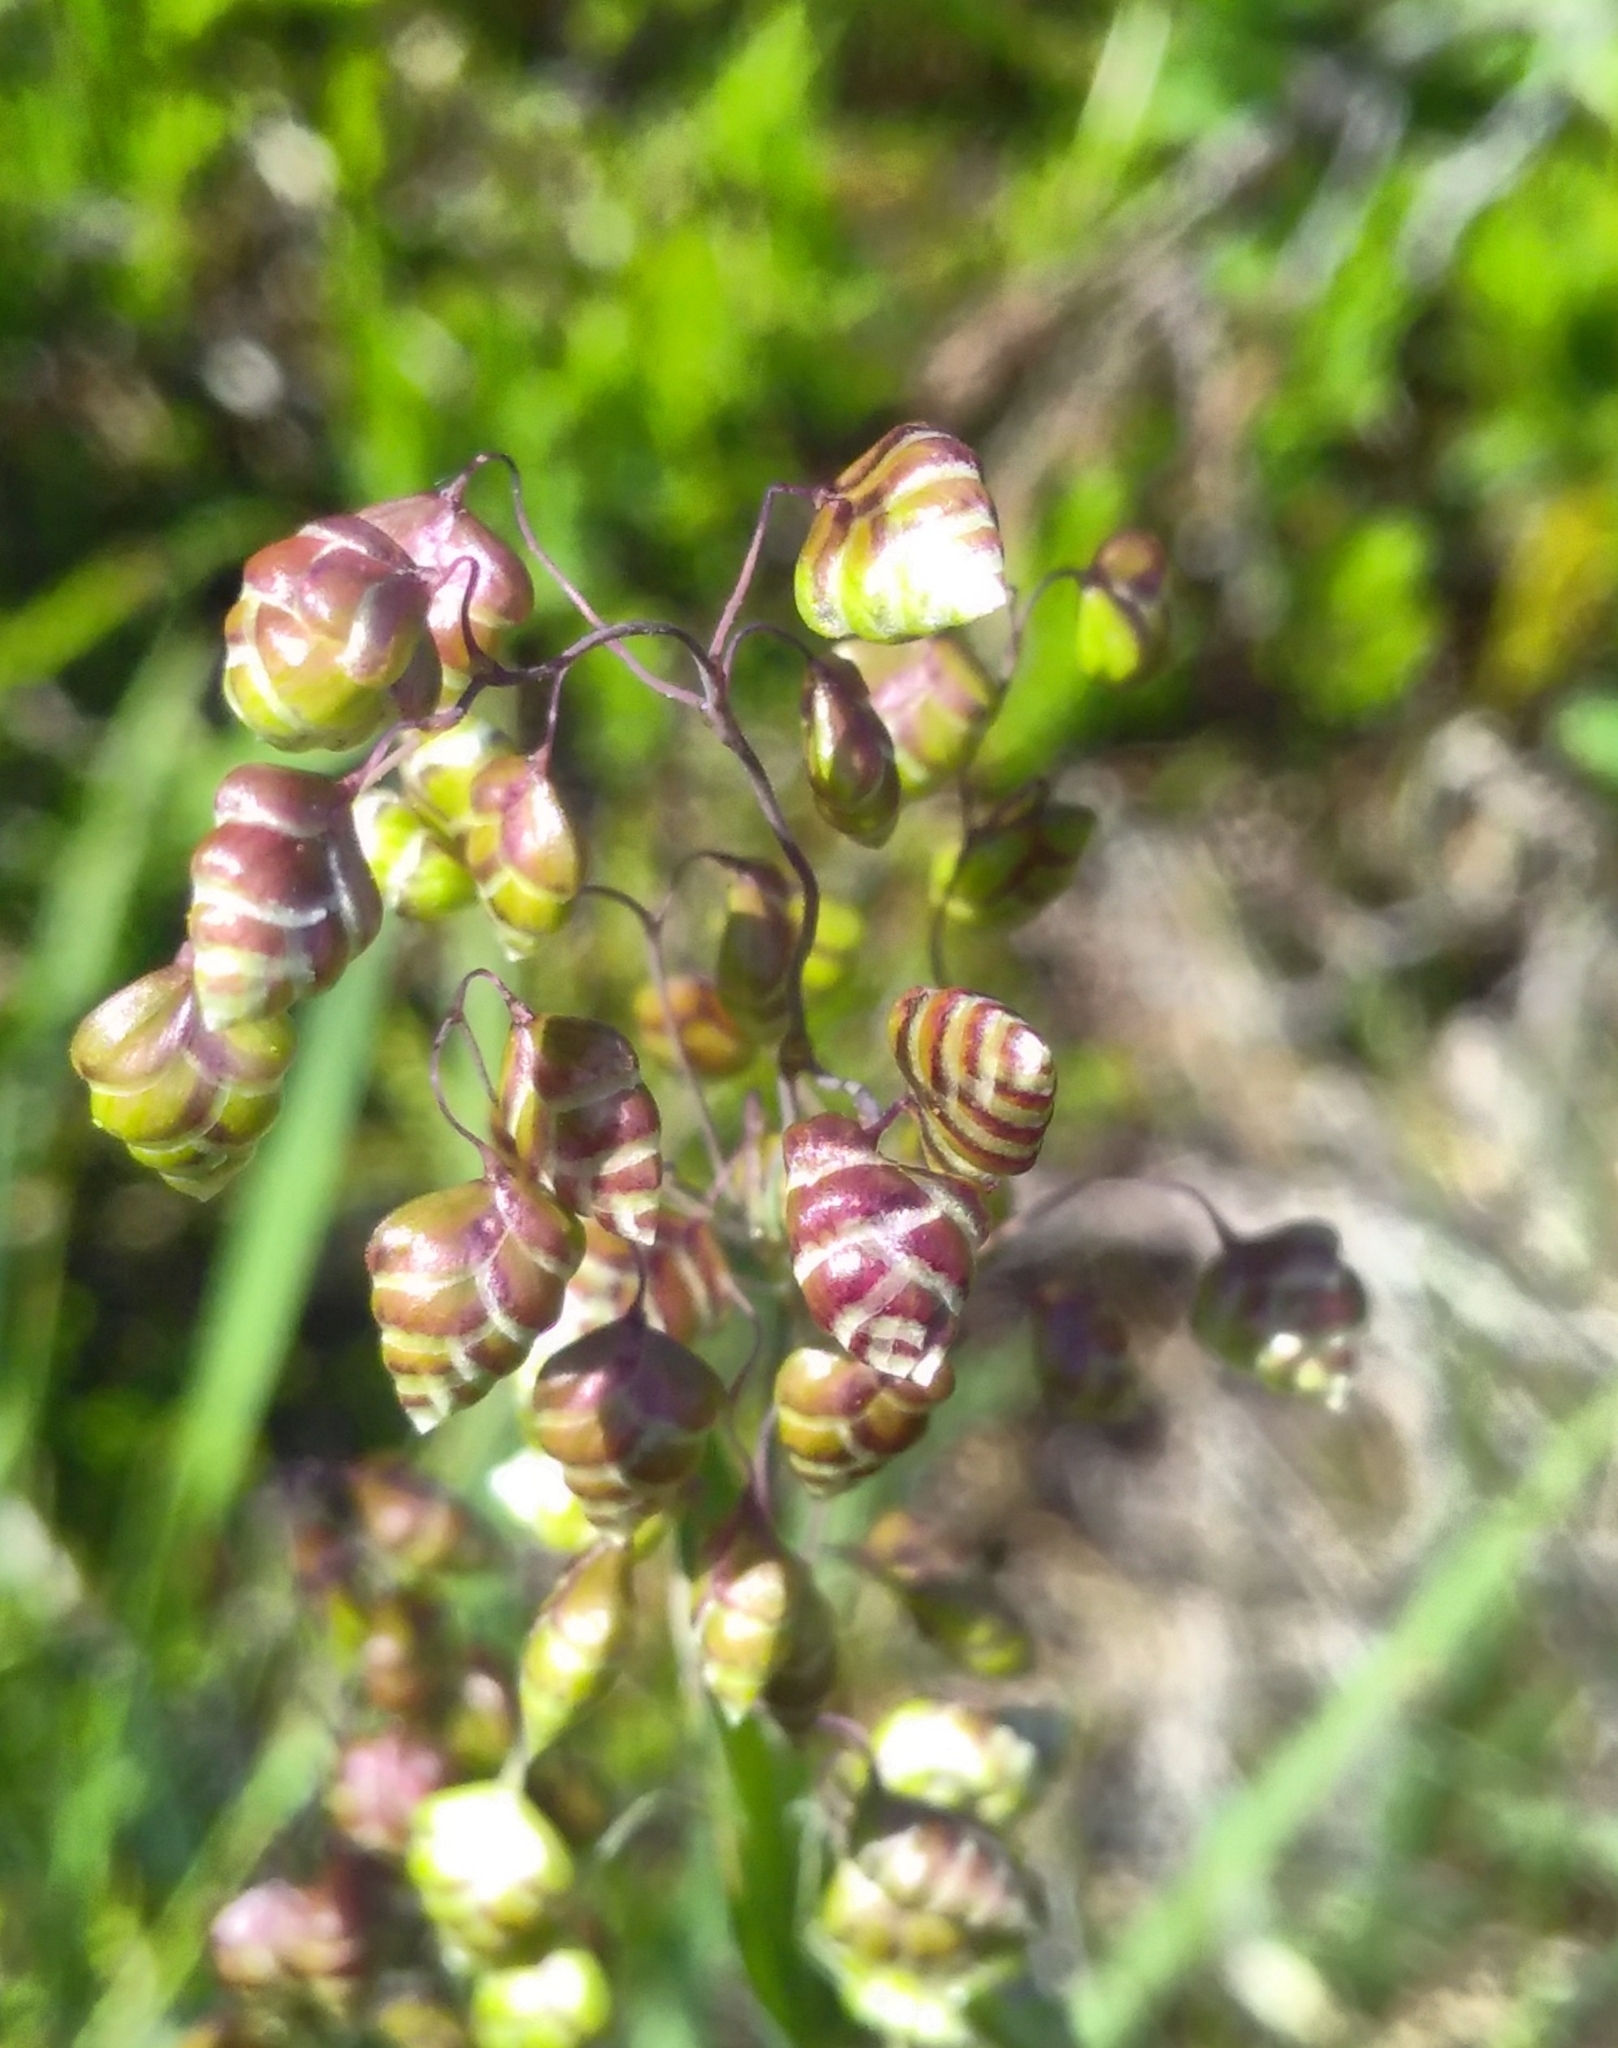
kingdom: Plantae
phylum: Tracheophyta
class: Liliopsida
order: Poales
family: Poaceae
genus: Briza
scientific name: Briza media
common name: Quaking grass
